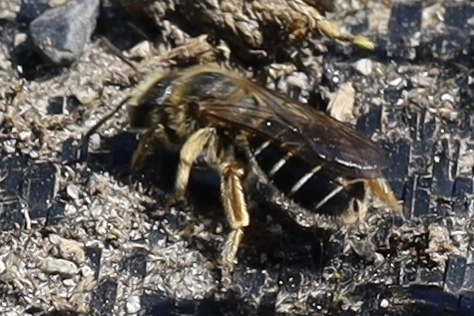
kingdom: Animalia
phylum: Arthropoda
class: Insecta
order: Hymenoptera
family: Halictidae
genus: Halictus
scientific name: Halictus rubicundus
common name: Orange-legged furrow bee
